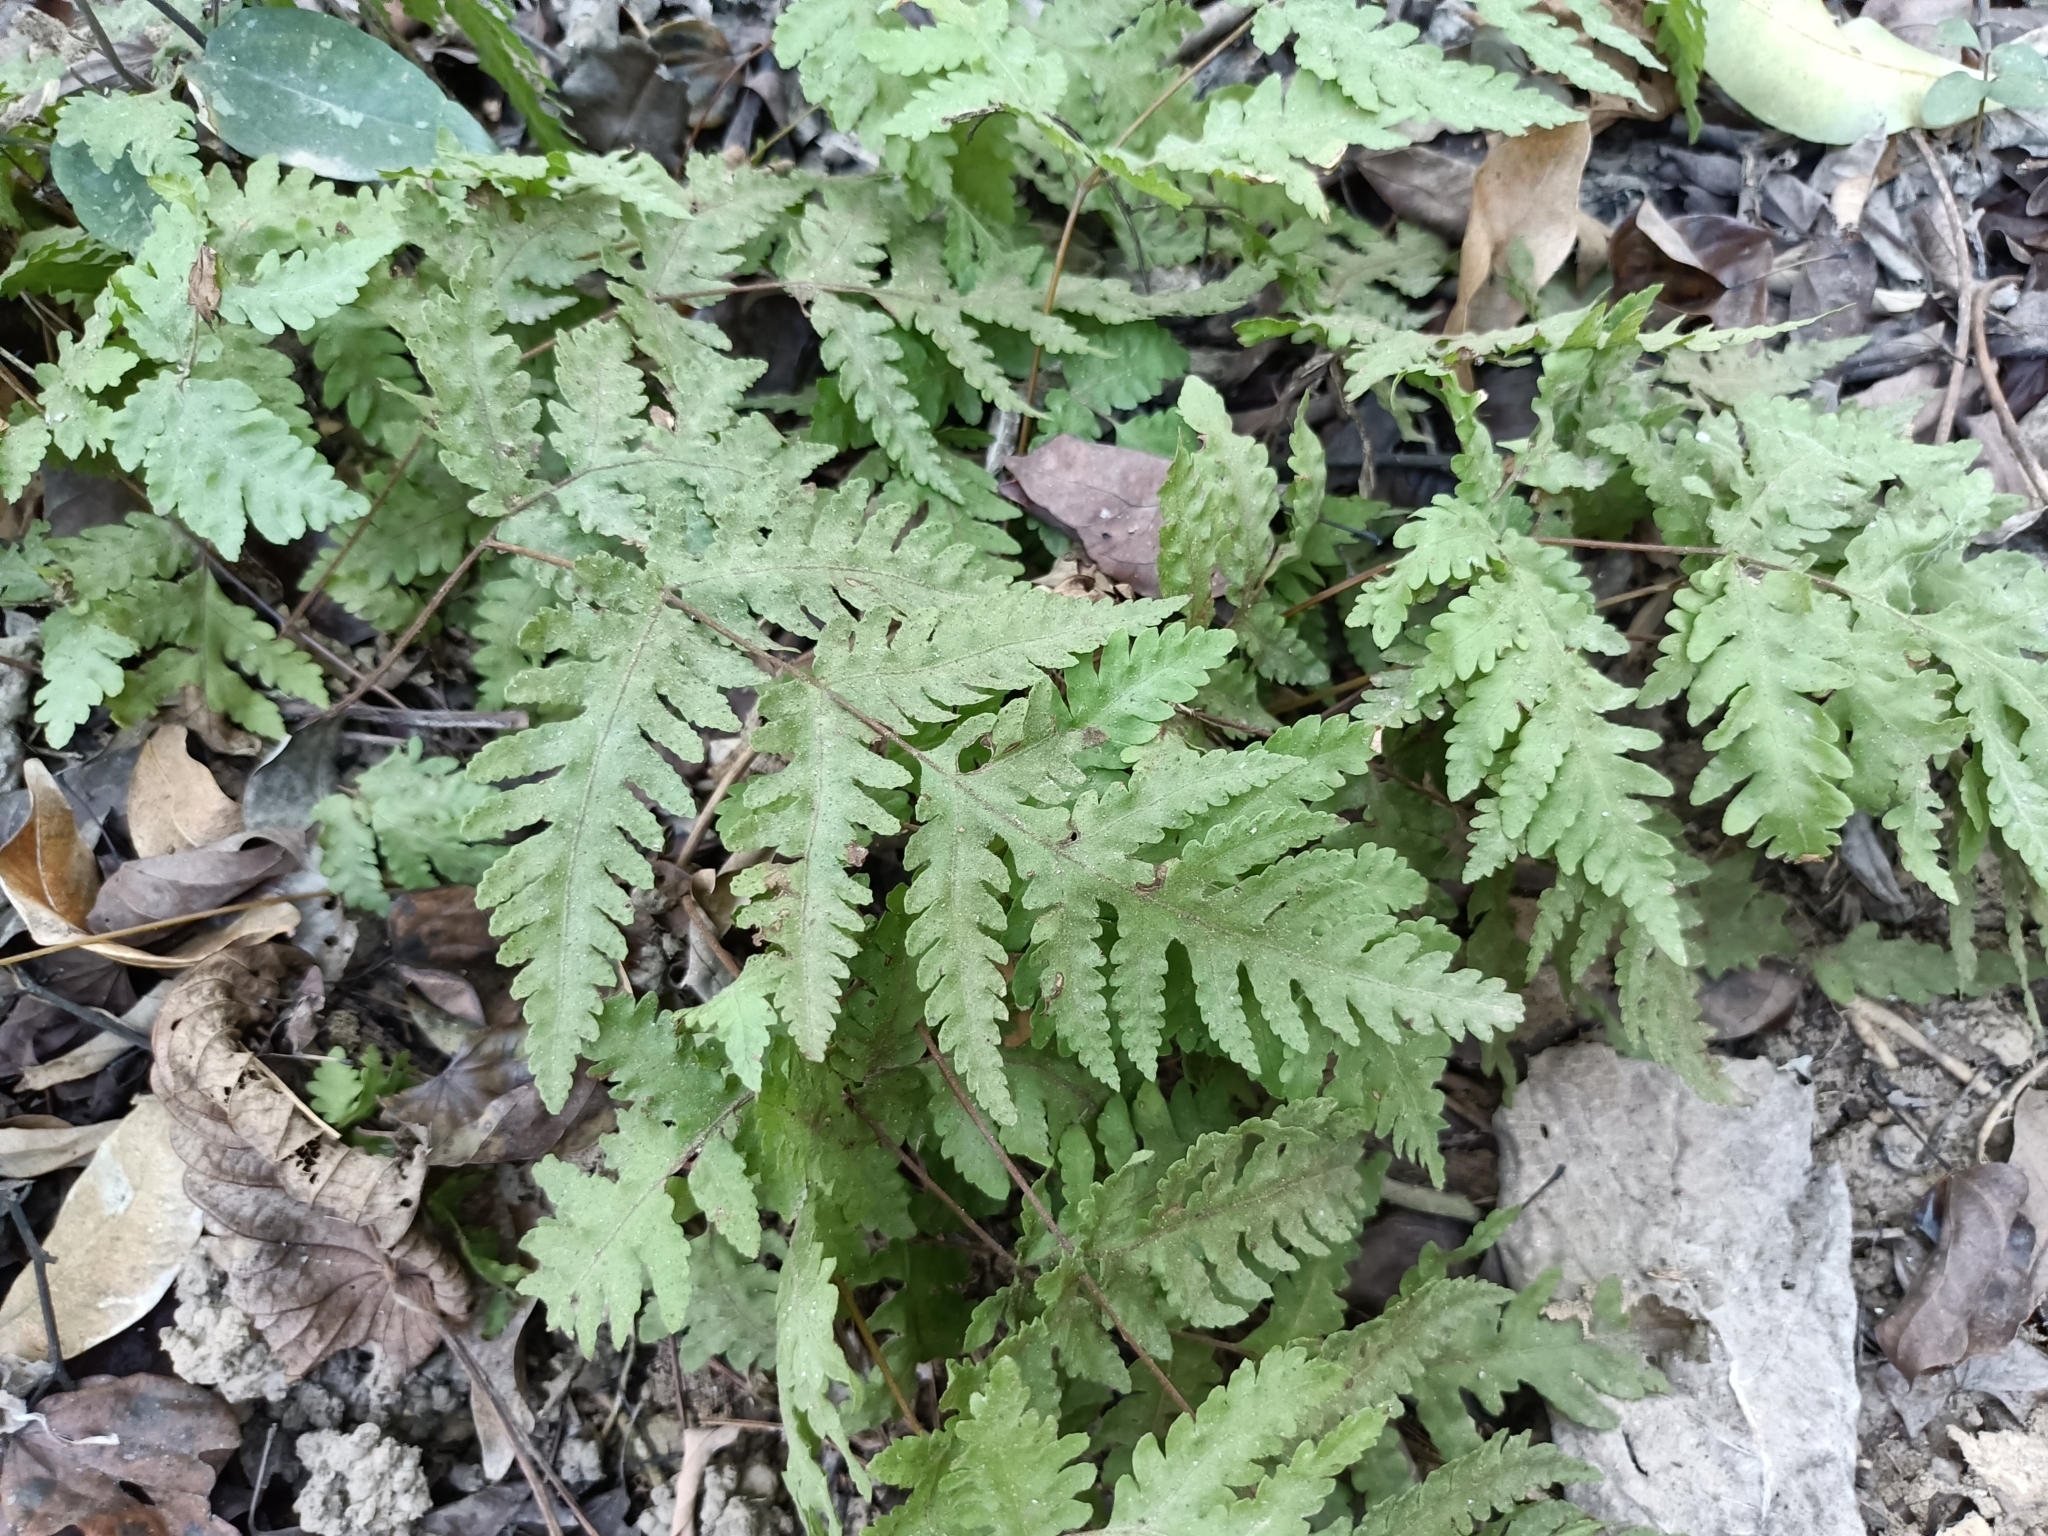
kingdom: Plantae
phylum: Tracheophyta
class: Polypodiopsida
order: Polypodiales
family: Tectariaceae
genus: Tectaria
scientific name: Tectaria membranacea
